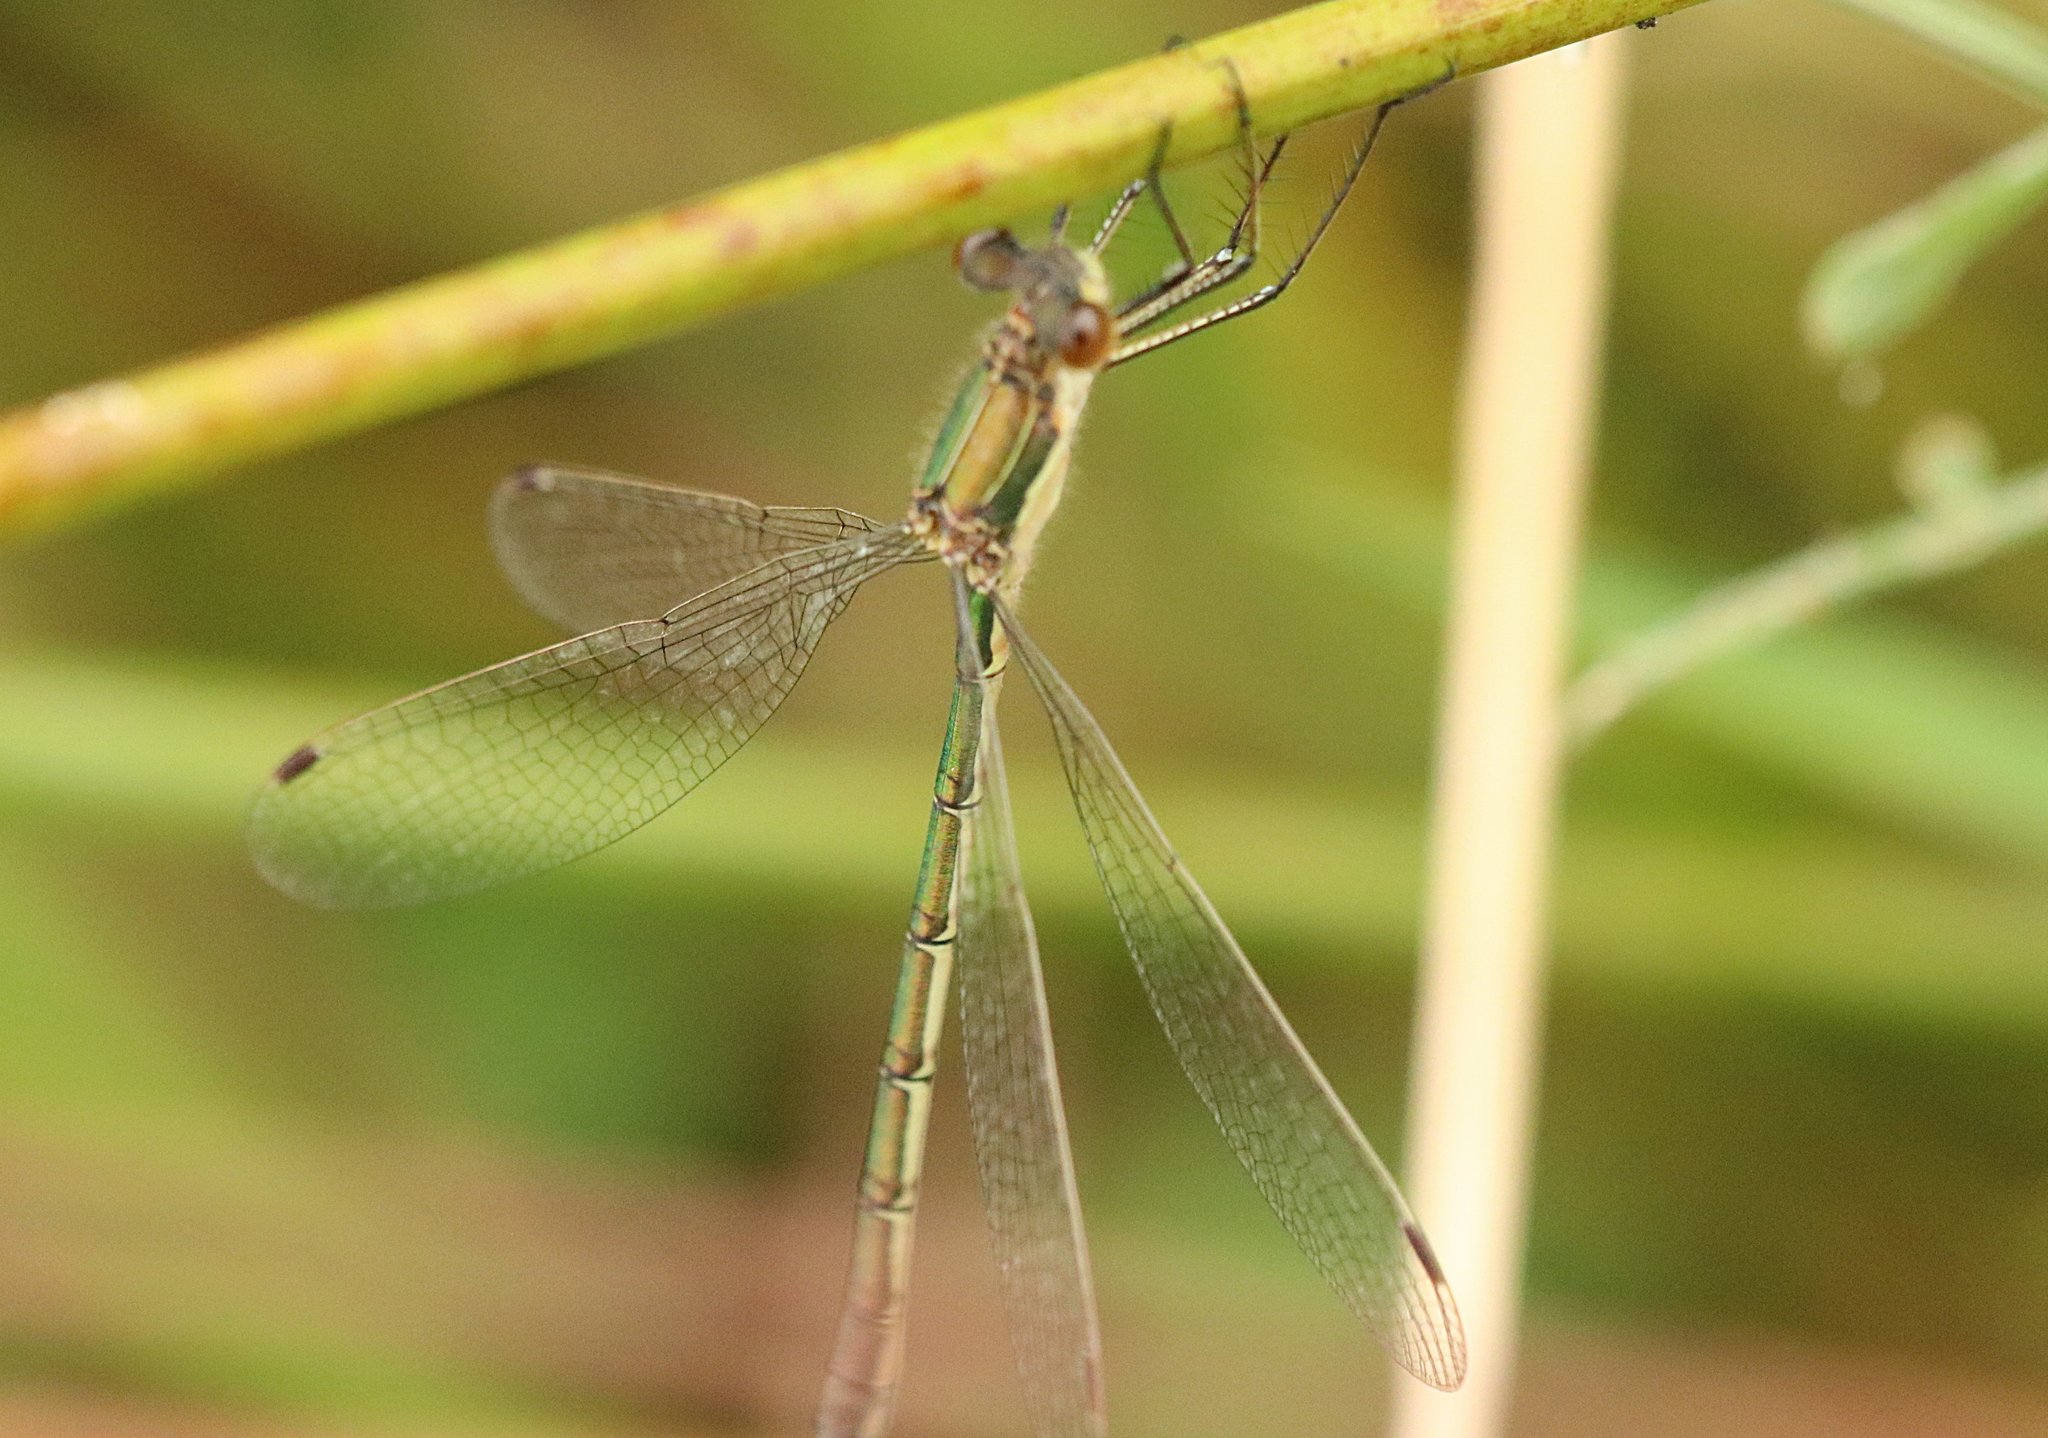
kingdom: Animalia
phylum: Arthropoda
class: Insecta
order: Odonata
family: Lestidae
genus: Lestes
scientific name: Lestes sponsa
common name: Common spreadwing
